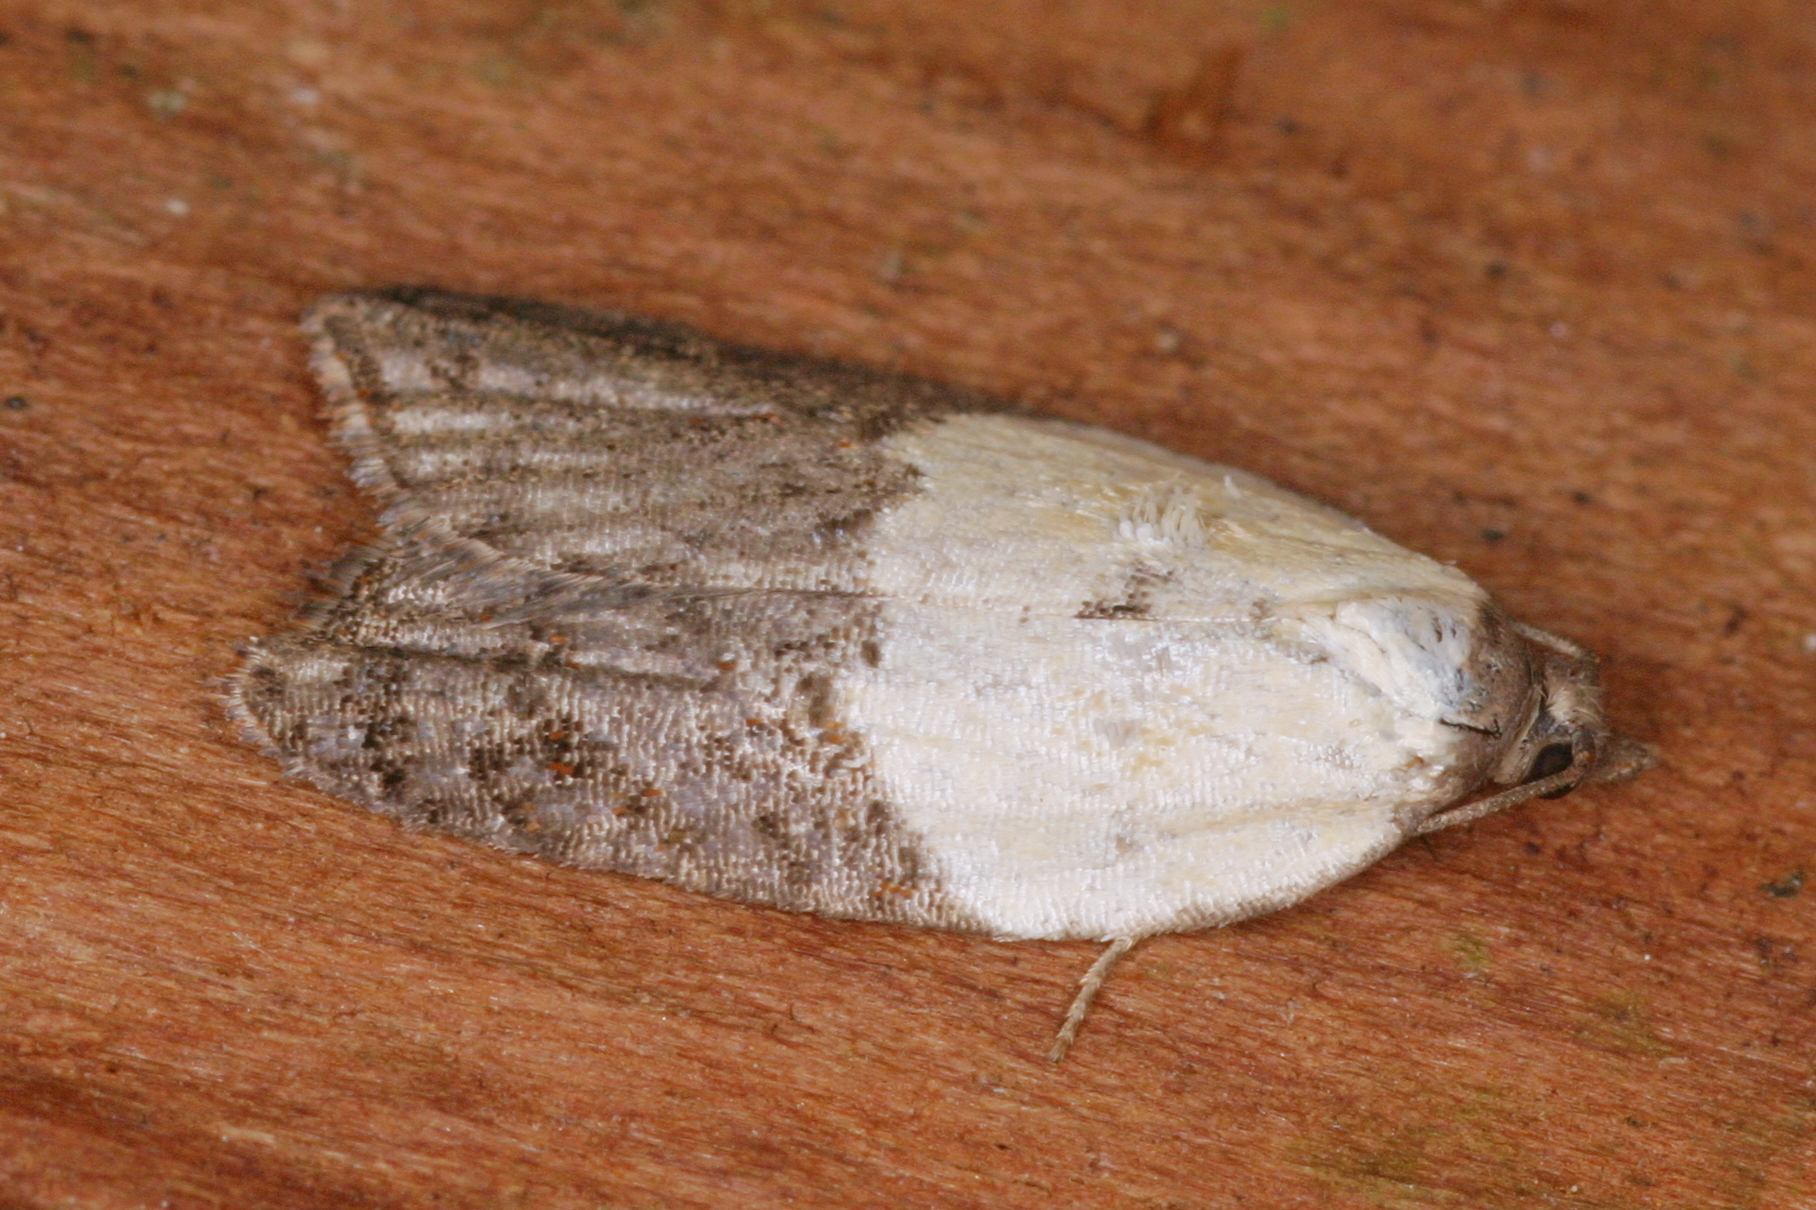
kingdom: Animalia
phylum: Arthropoda
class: Insecta
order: Lepidoptera
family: Tortricidae
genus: Acleris
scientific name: Acleris variegana
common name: Garden rose tortrix
